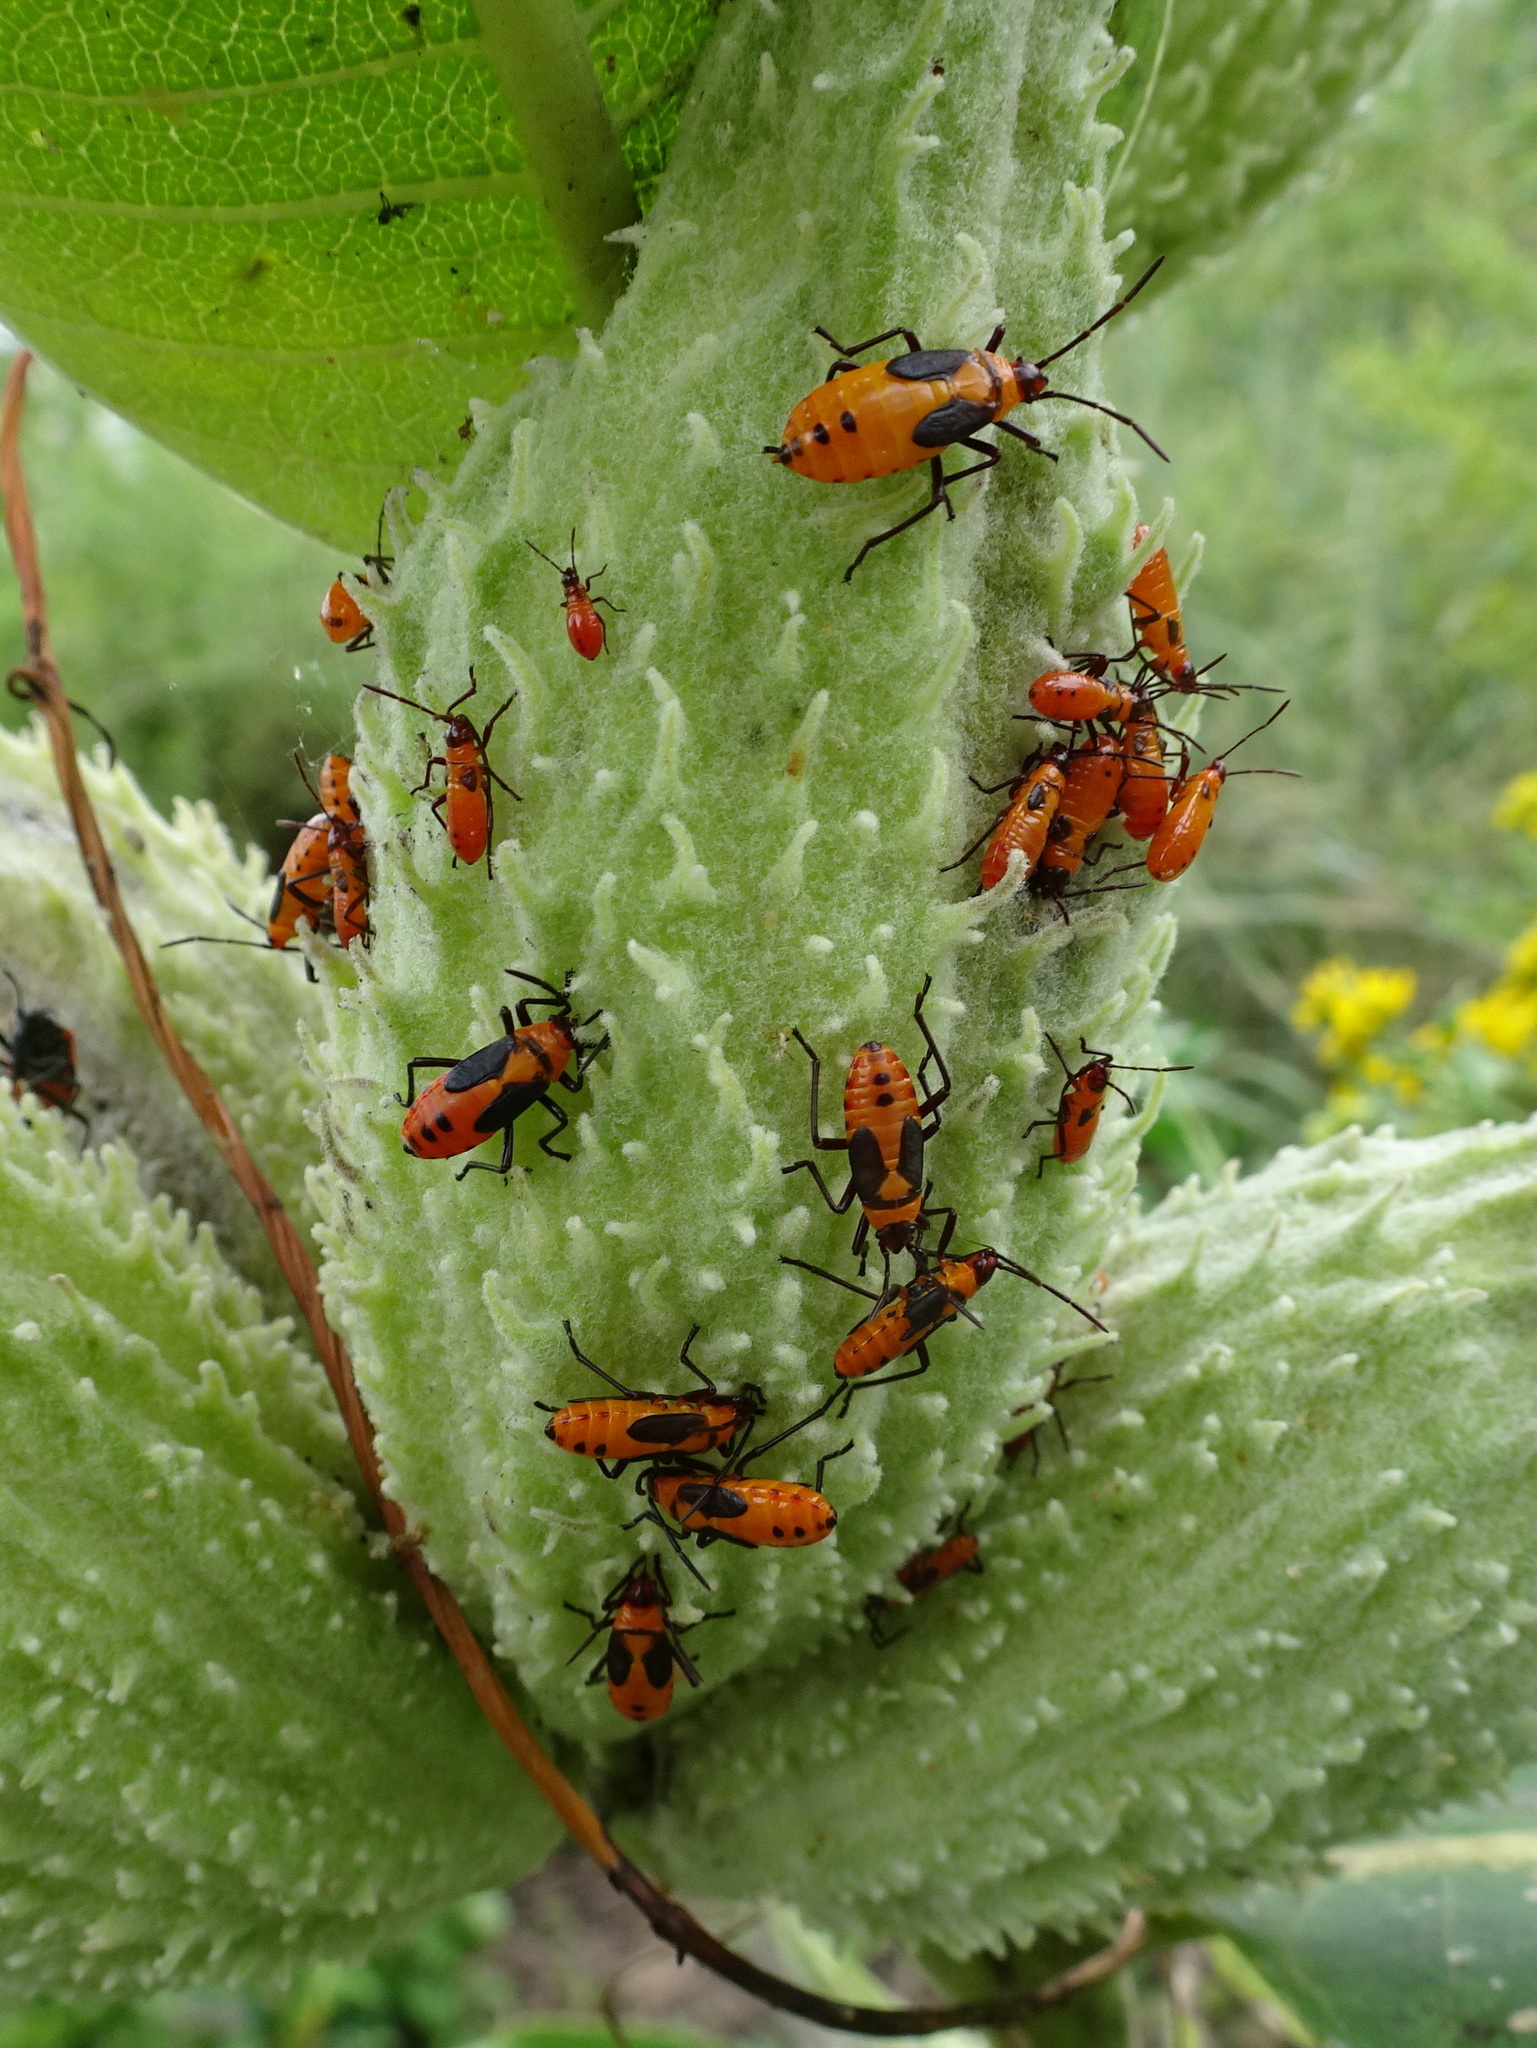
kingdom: Animalia
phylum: Arthropoda
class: Insecta
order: Hemiptera
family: Lygaeidae
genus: Oncopeltus
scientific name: Oncopeltus fasciatus
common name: Large milkweed bug
